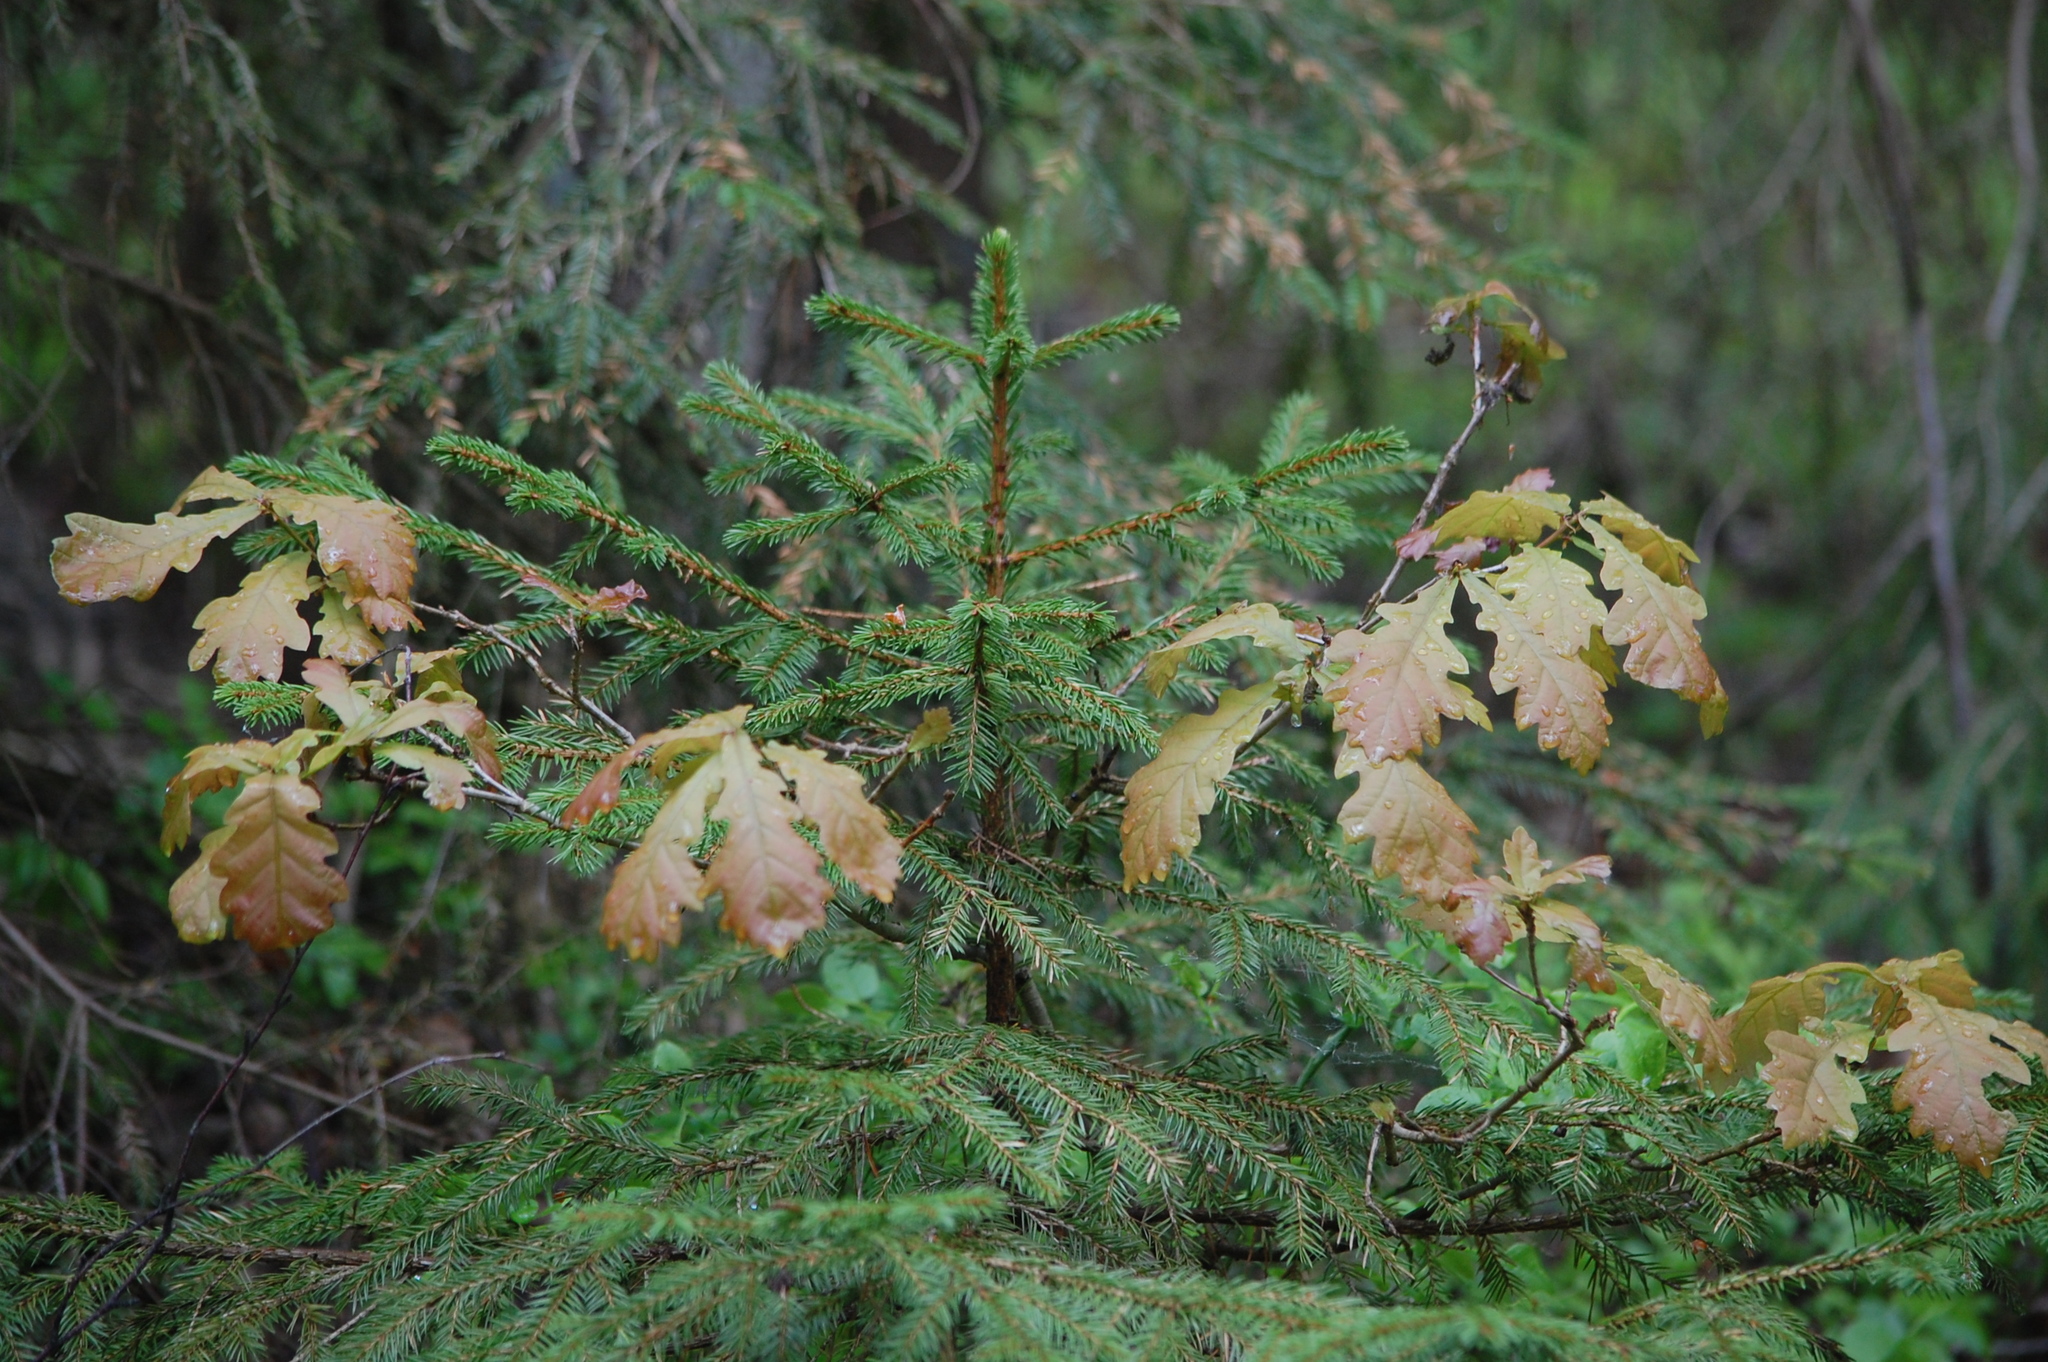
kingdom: Plantae
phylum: Tracheophyta
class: Pinopsida
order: Pinales
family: Pinaceae
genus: Picea
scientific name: Picea abies
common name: Norway spruce
